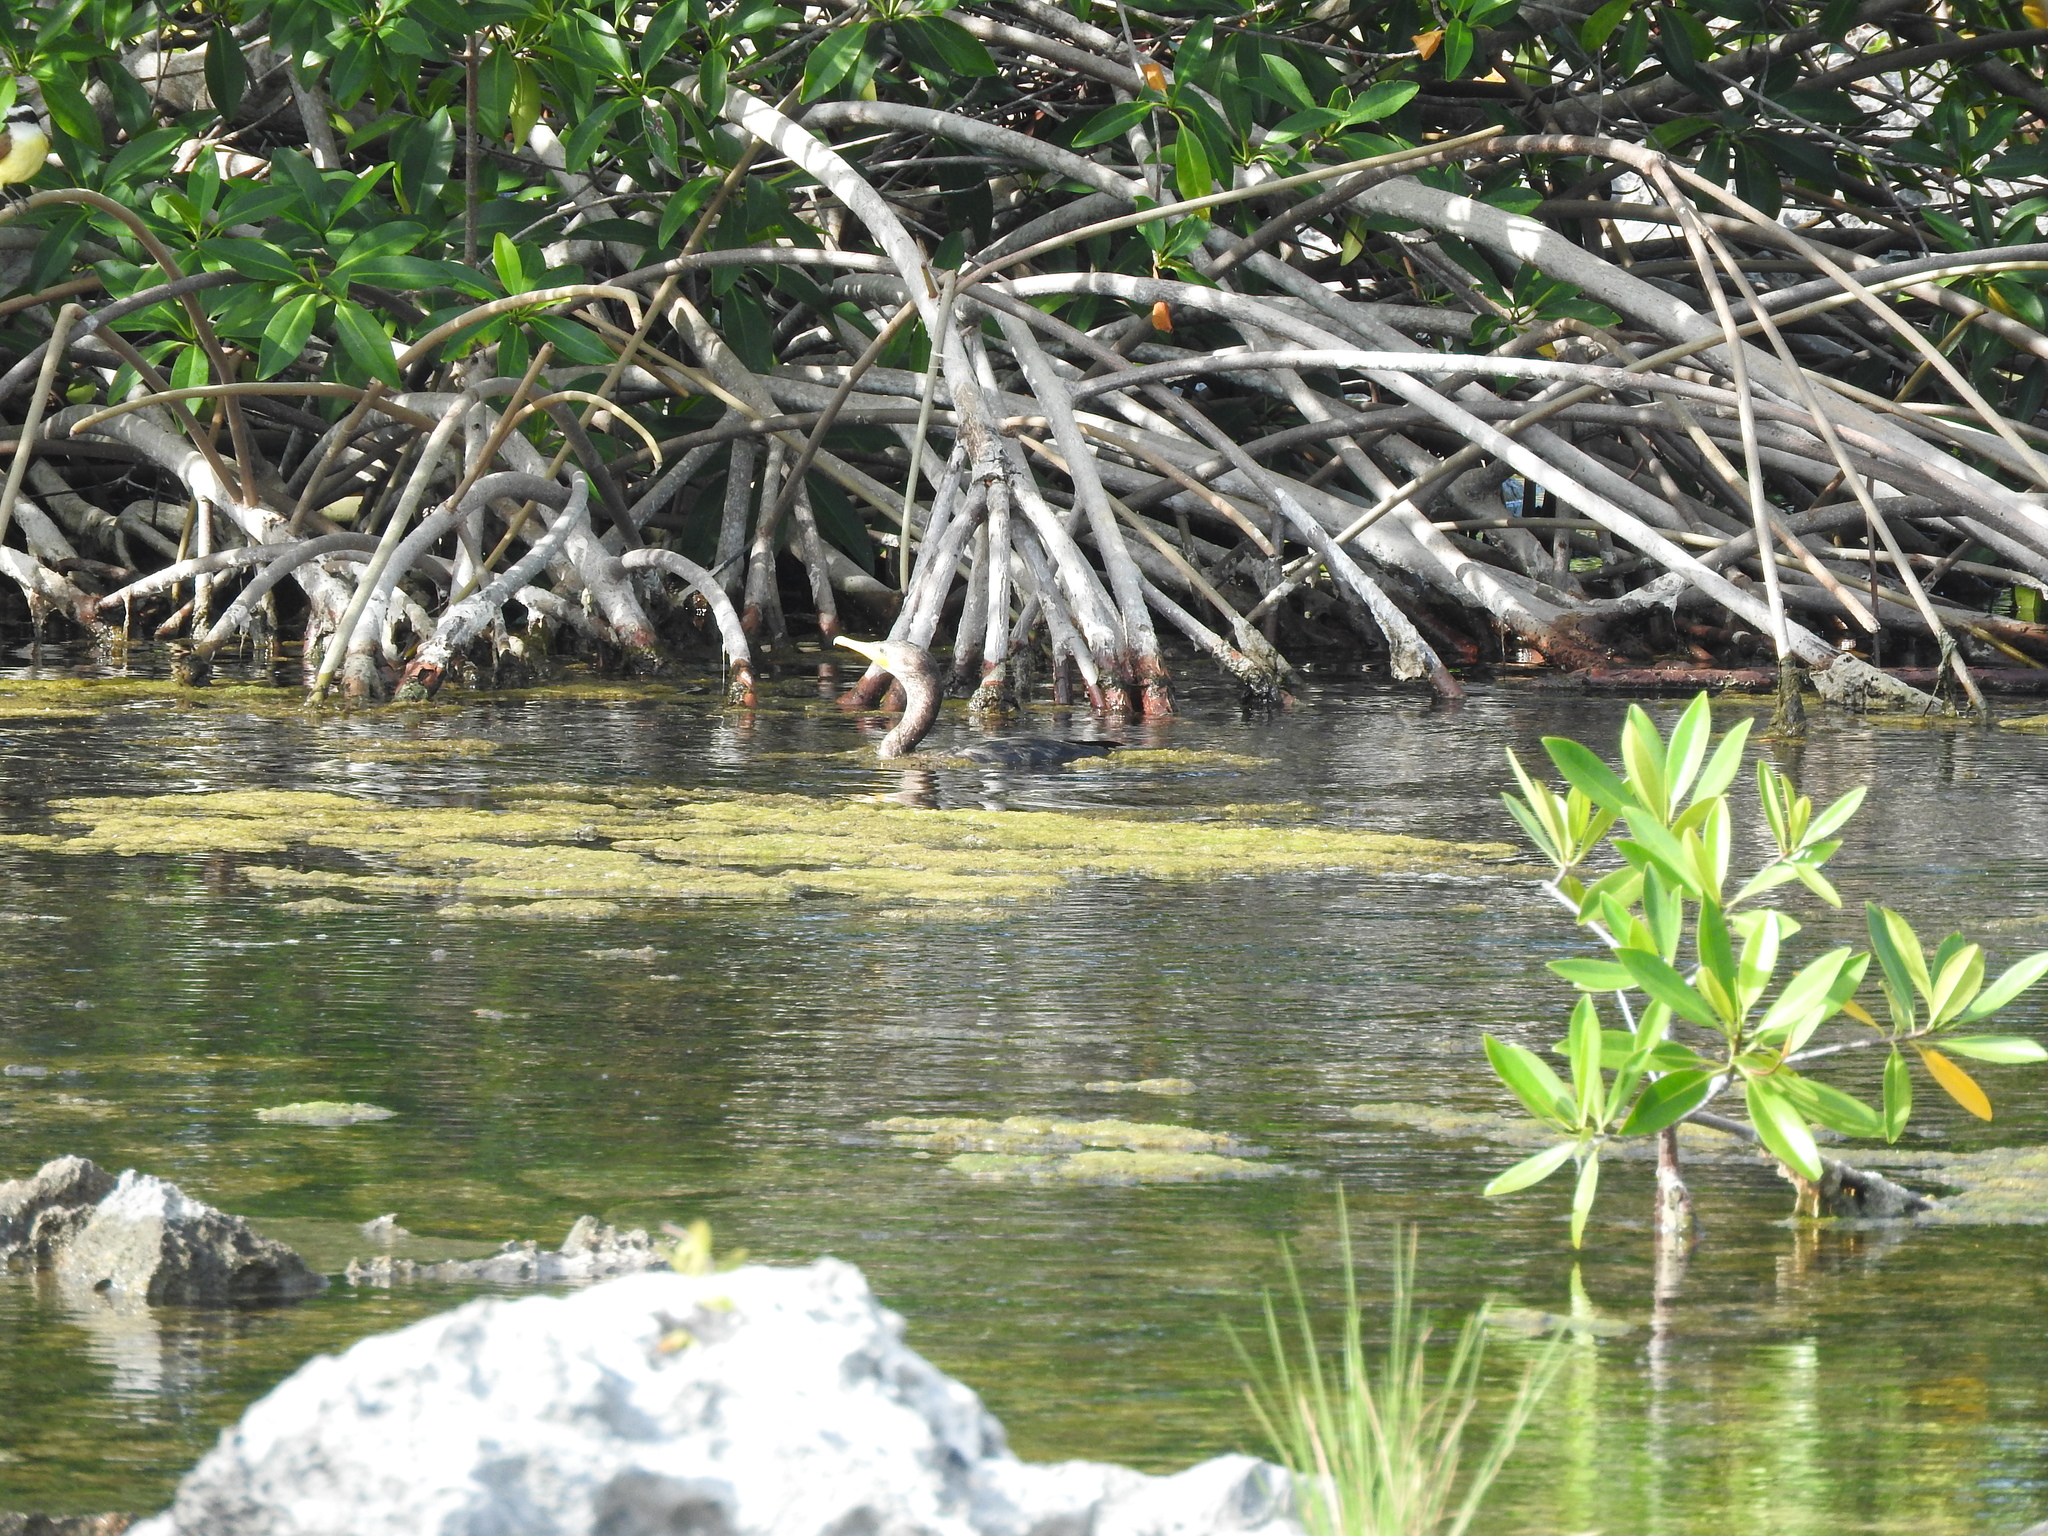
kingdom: Animalia
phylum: Chordata
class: Aves
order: Suliformes
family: Phalacrocoracidae
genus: Phalacrocorax
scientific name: Phalacrocorax brasilianus
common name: Neotropic cormorant
